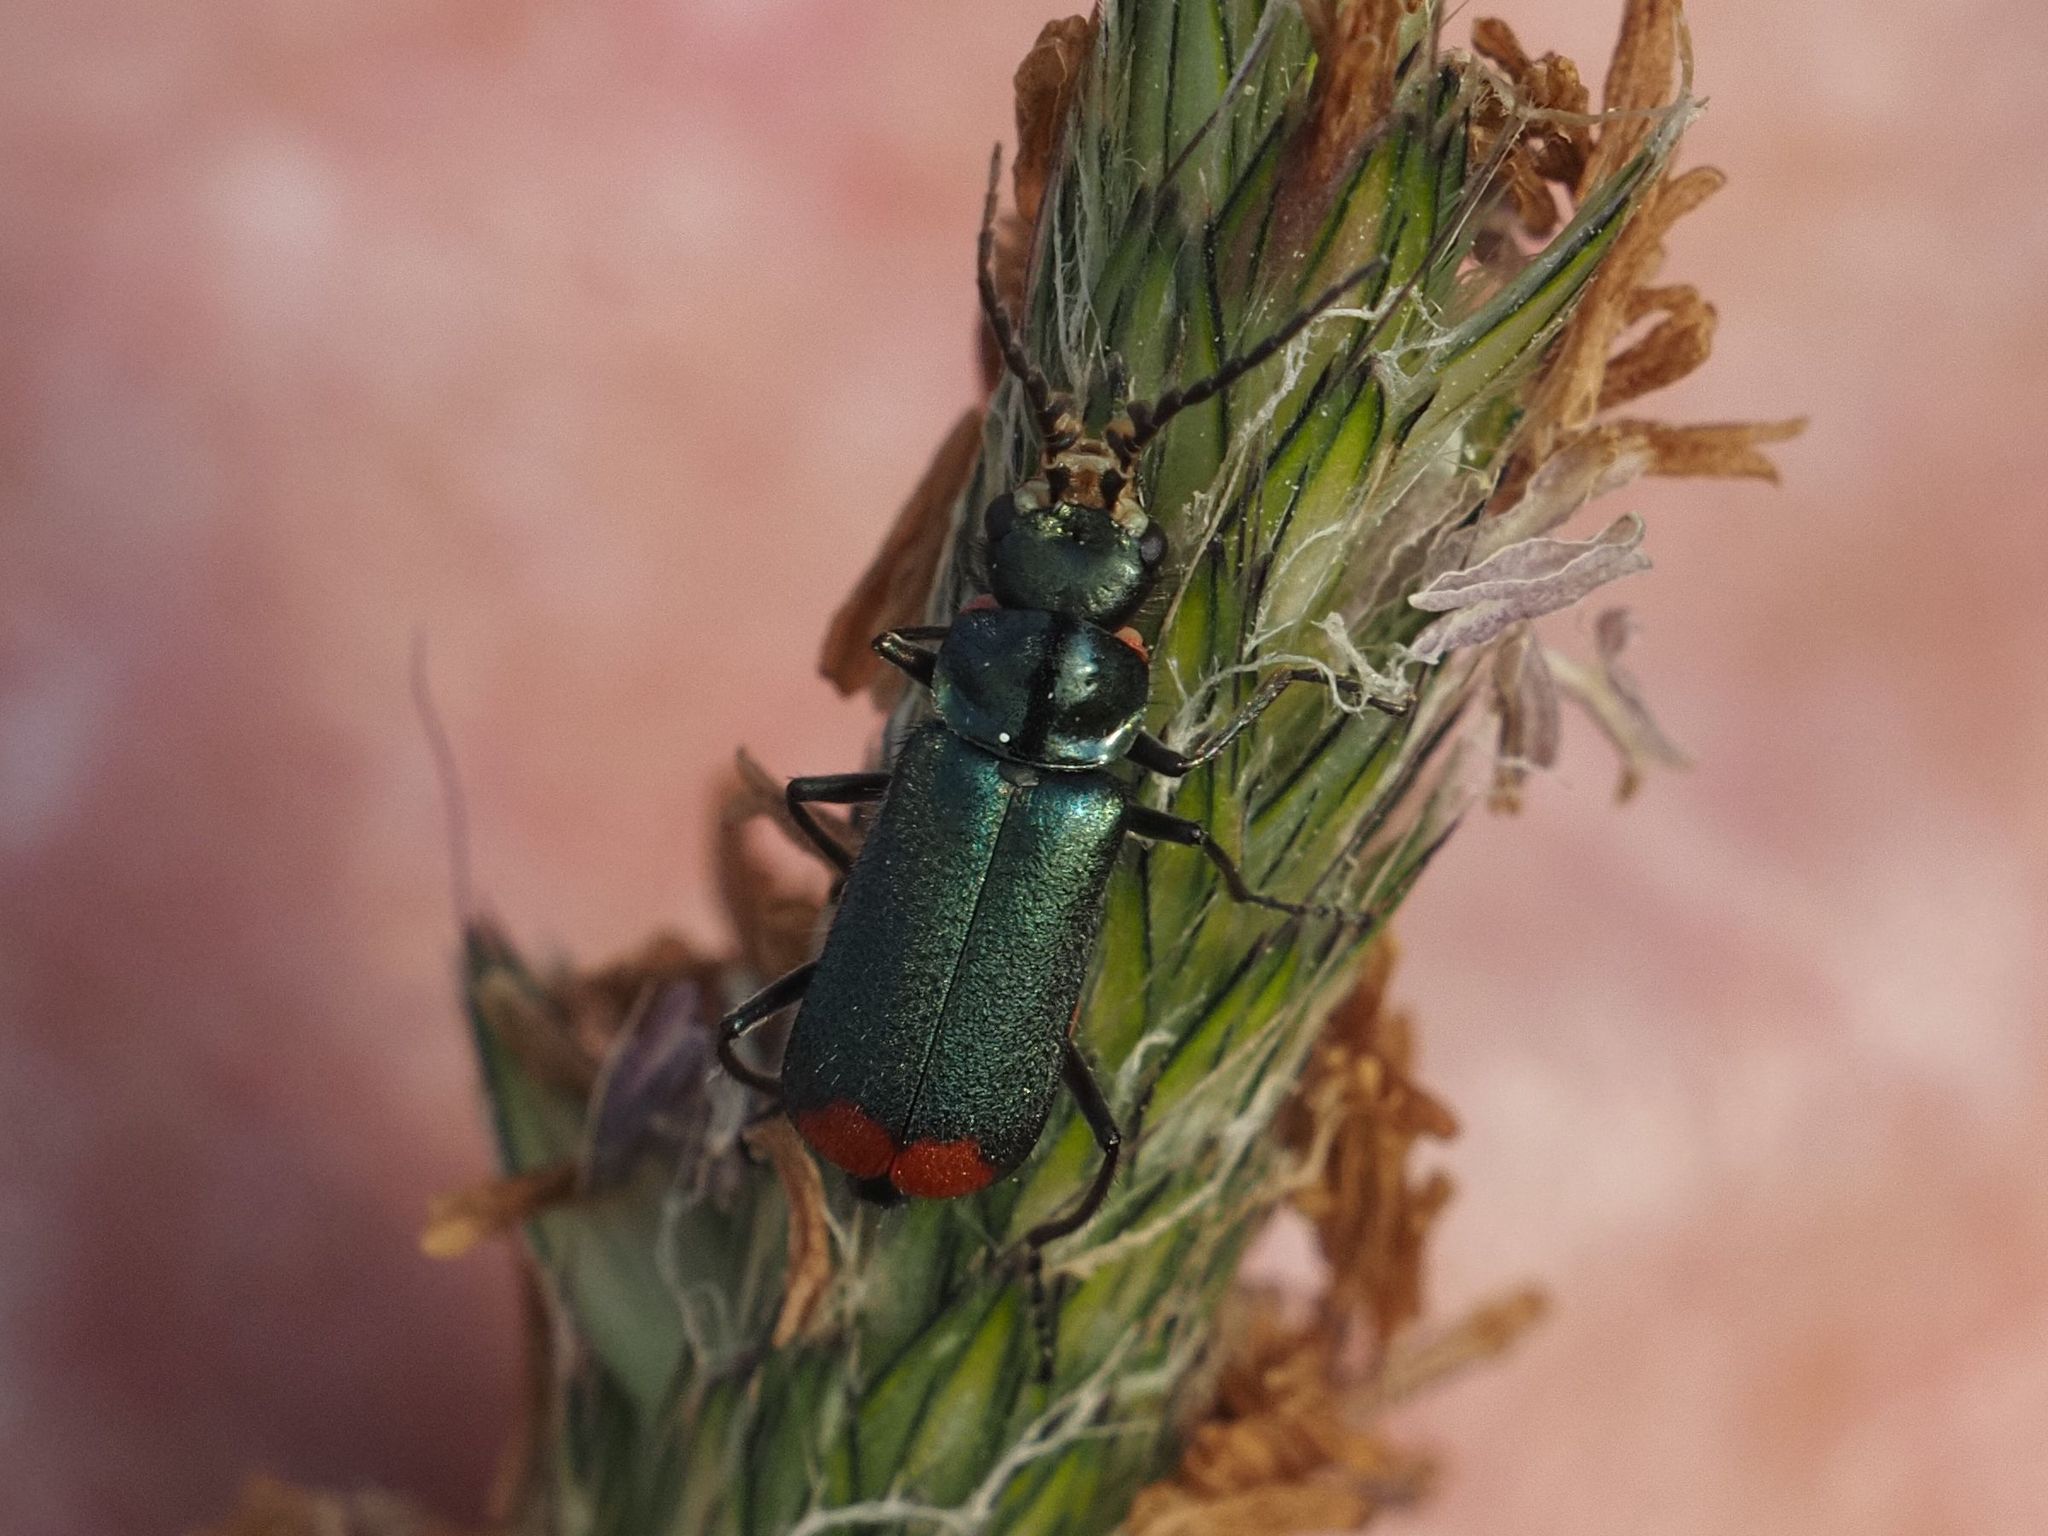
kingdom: Animalia
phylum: Arthropoda
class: Insecta
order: Coleoptera
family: Melyridae
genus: Malachius
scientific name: Malachius bipustulatus
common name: Malachite beetle
